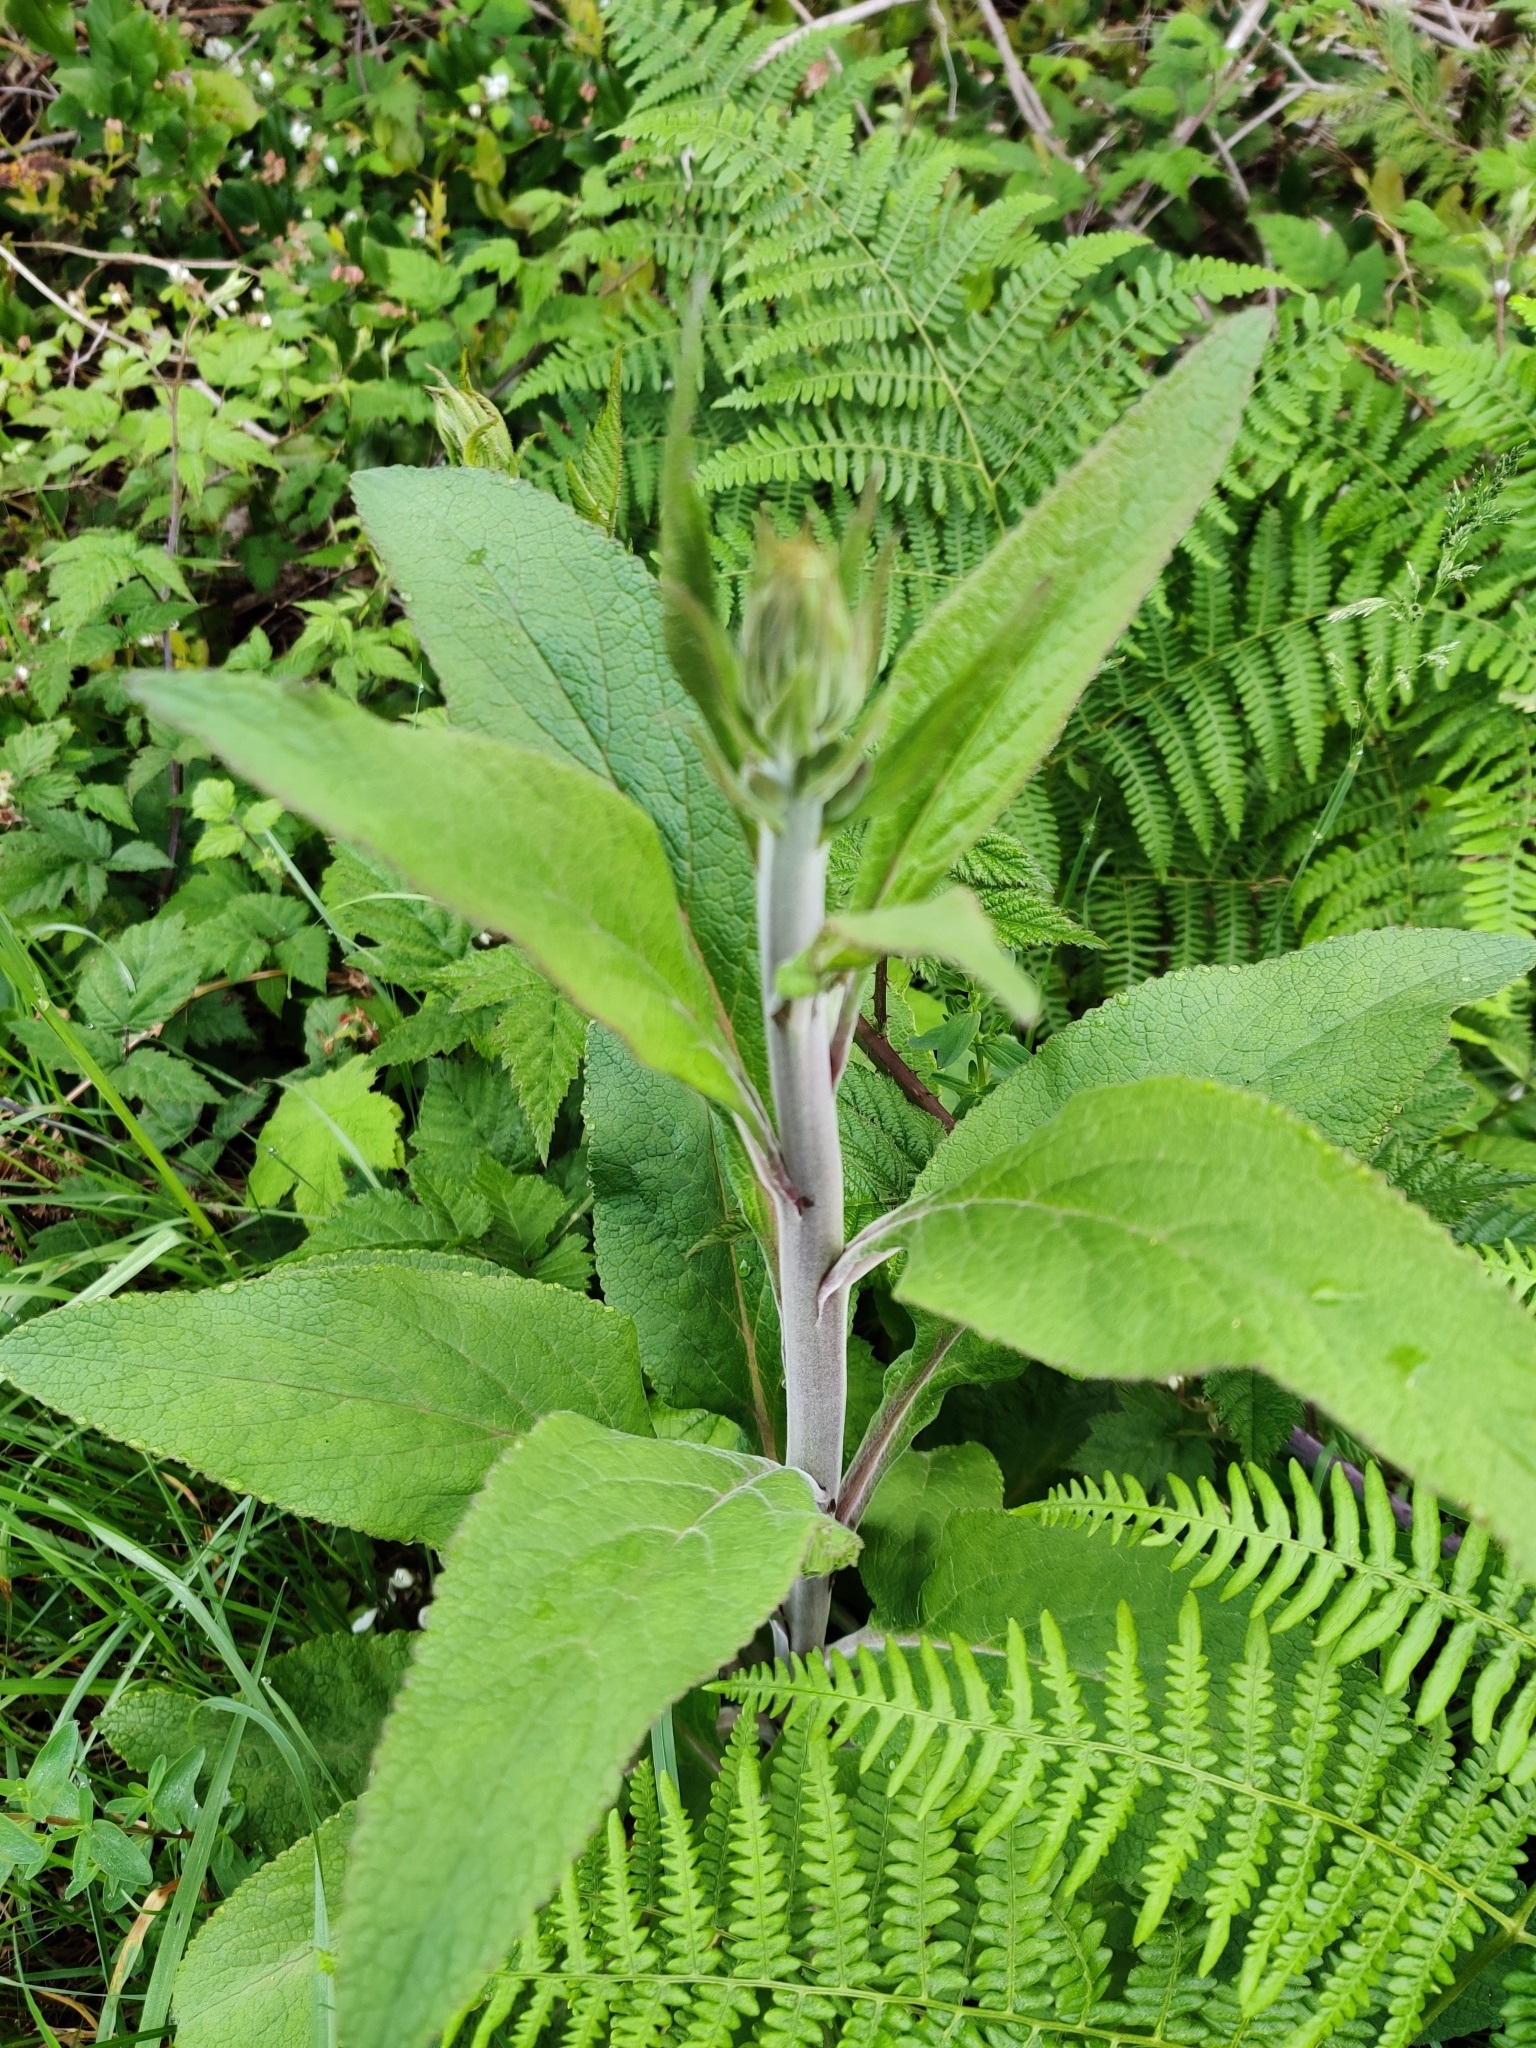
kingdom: Plantae
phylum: Tracheophyta
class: Magnoliopsida
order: Lamiales
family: Plantaginaceae
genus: Digitalis
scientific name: Digitalis purpurea
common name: Foxglove
